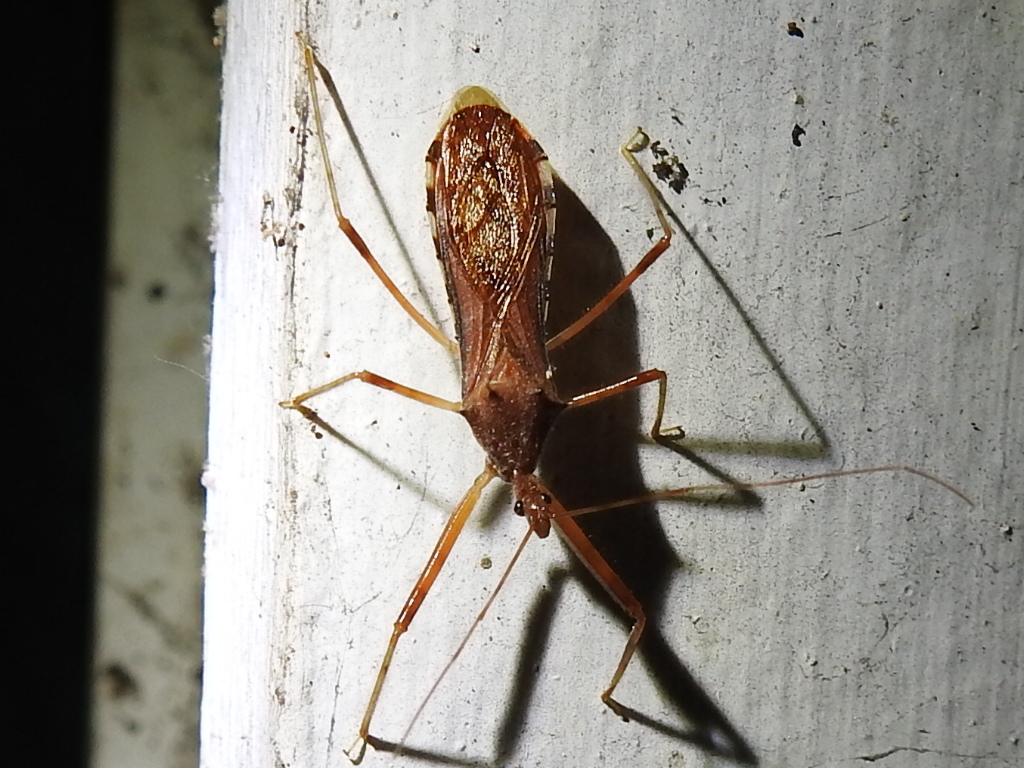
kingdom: Animalia
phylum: Arthropoda
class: Insecta
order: Hemiptera
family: Reduviidae
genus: Rocconota
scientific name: Rocconota annulicornis
